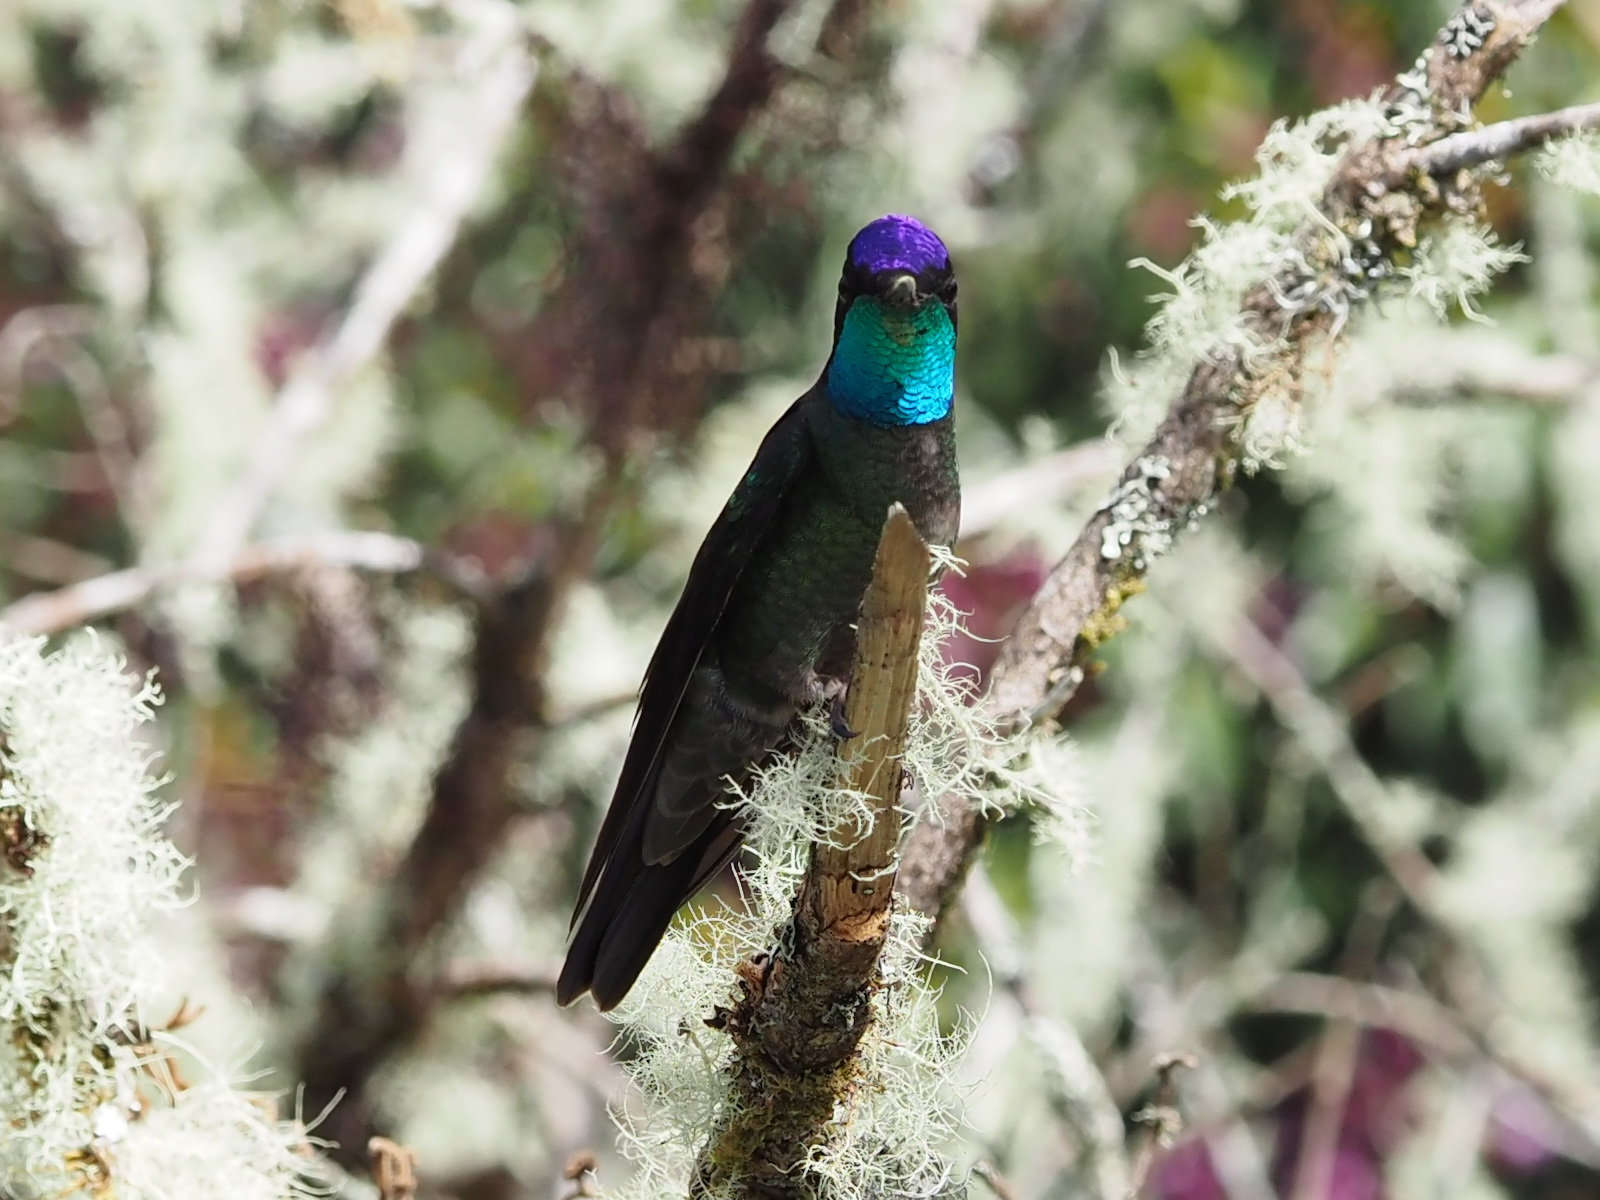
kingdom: Animalia
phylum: Chordata
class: Aves
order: Apodiformes
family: Trochilidae
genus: Eugenes
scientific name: Eugenes spectabilis
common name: Talamanca hummingbird
